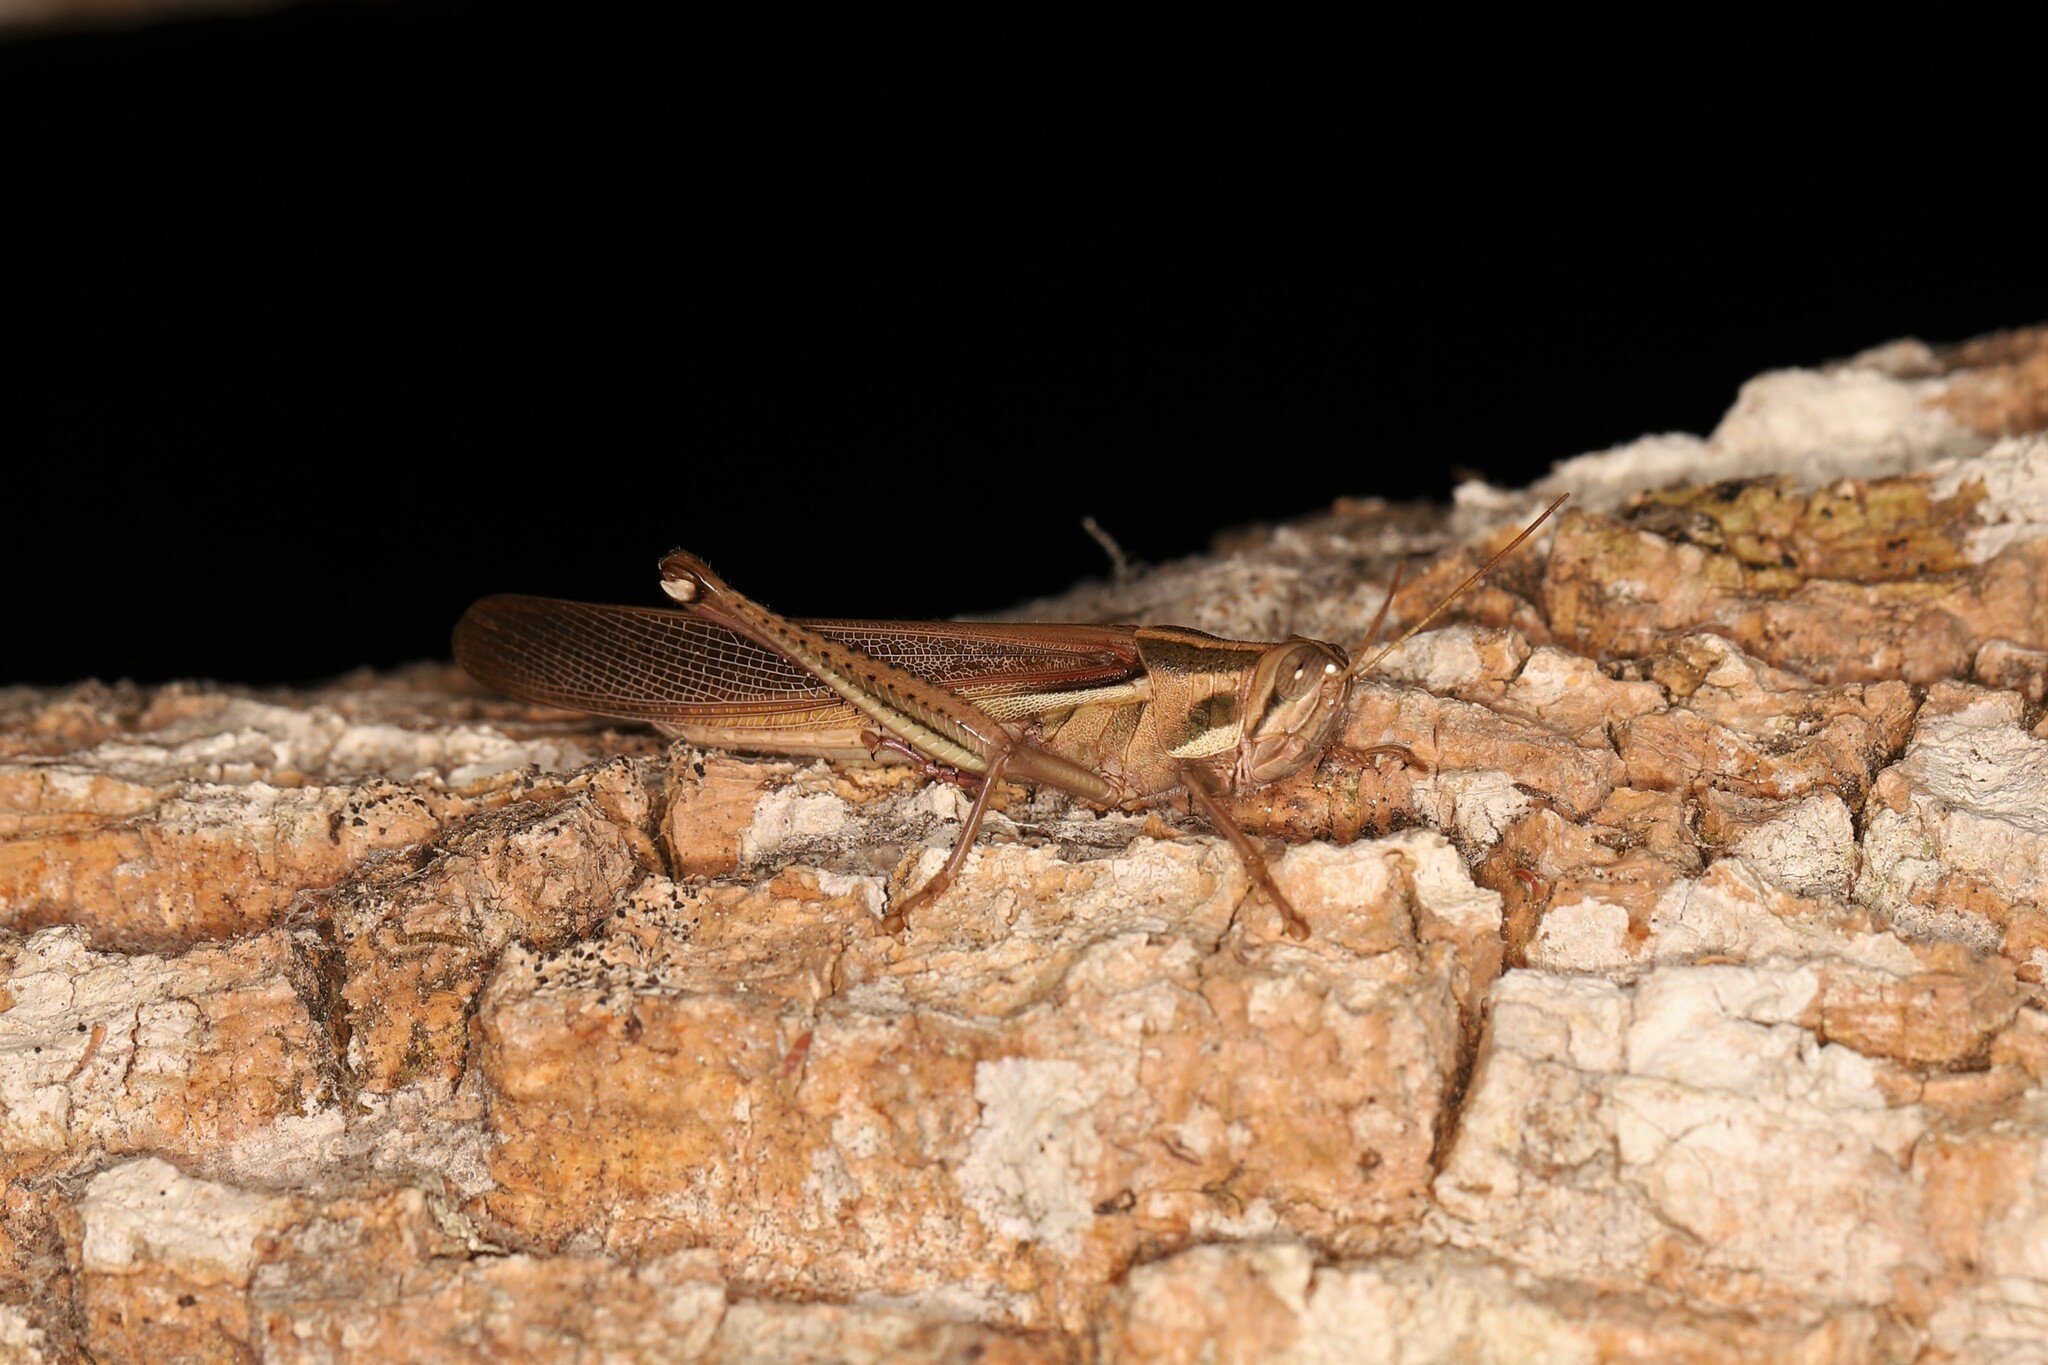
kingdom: Animalia
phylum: Arthropoda
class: Insecta
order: Orthoptera
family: Acrididae
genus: Schistocerca
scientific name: Schistocerca pallens
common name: Bird grasshopper
